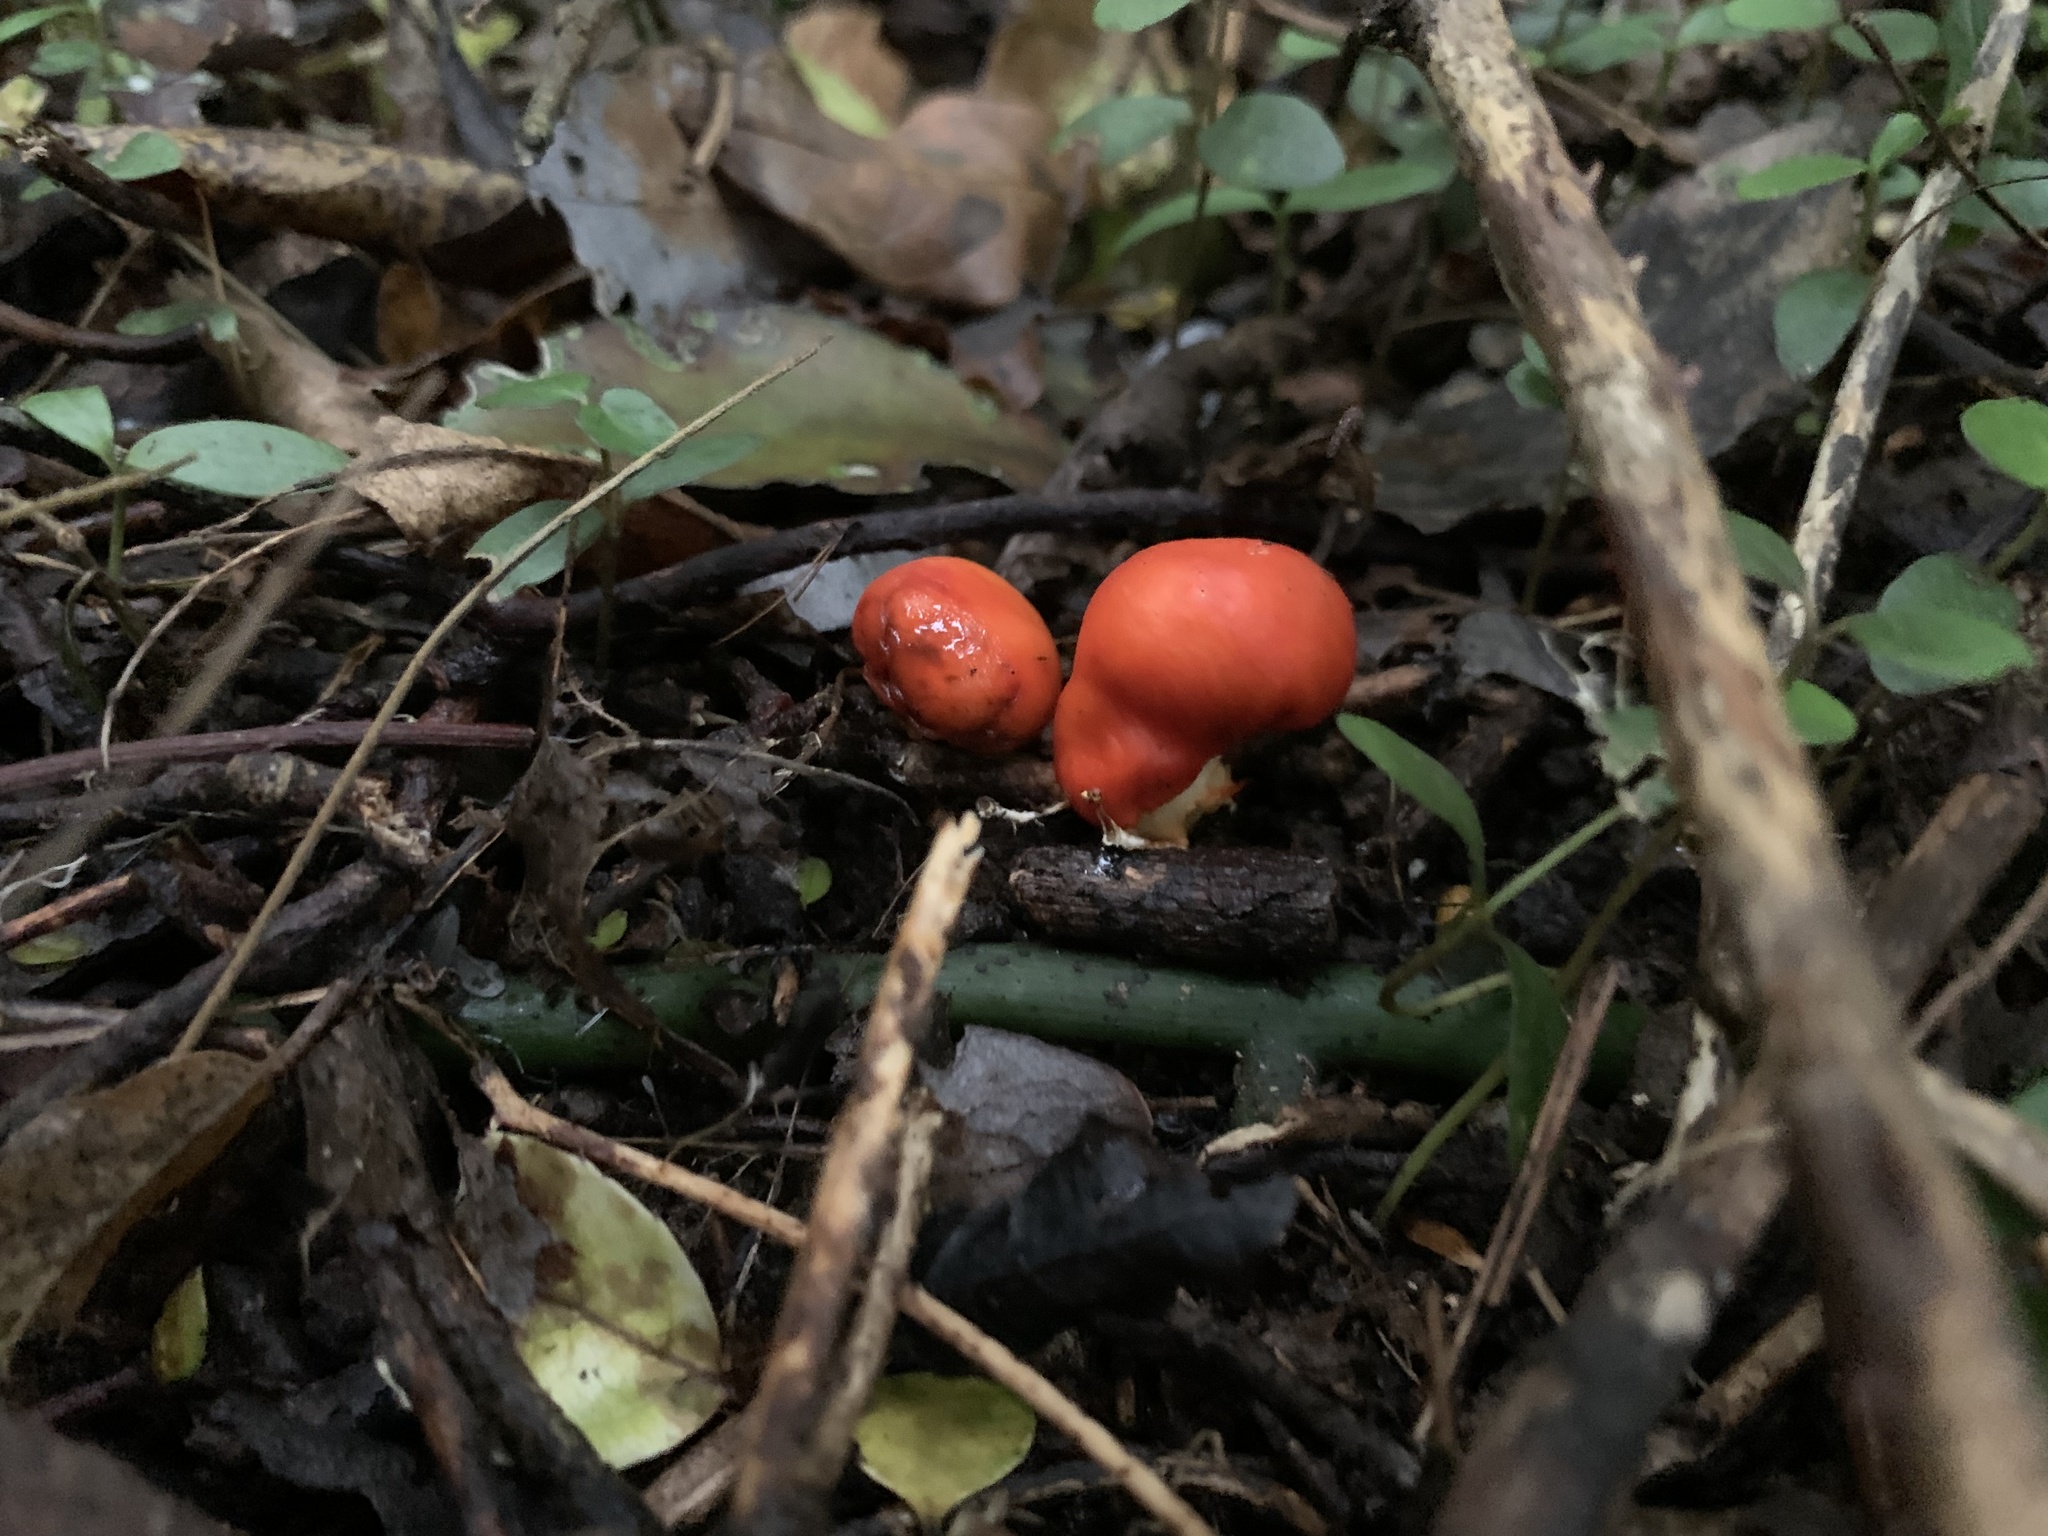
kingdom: Fungi
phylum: Basidiomycota
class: Agaricomycetes
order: Agaricales
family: Strophariaceae
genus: Leratiomyces
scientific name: Leratiomyces erythrocephalus
